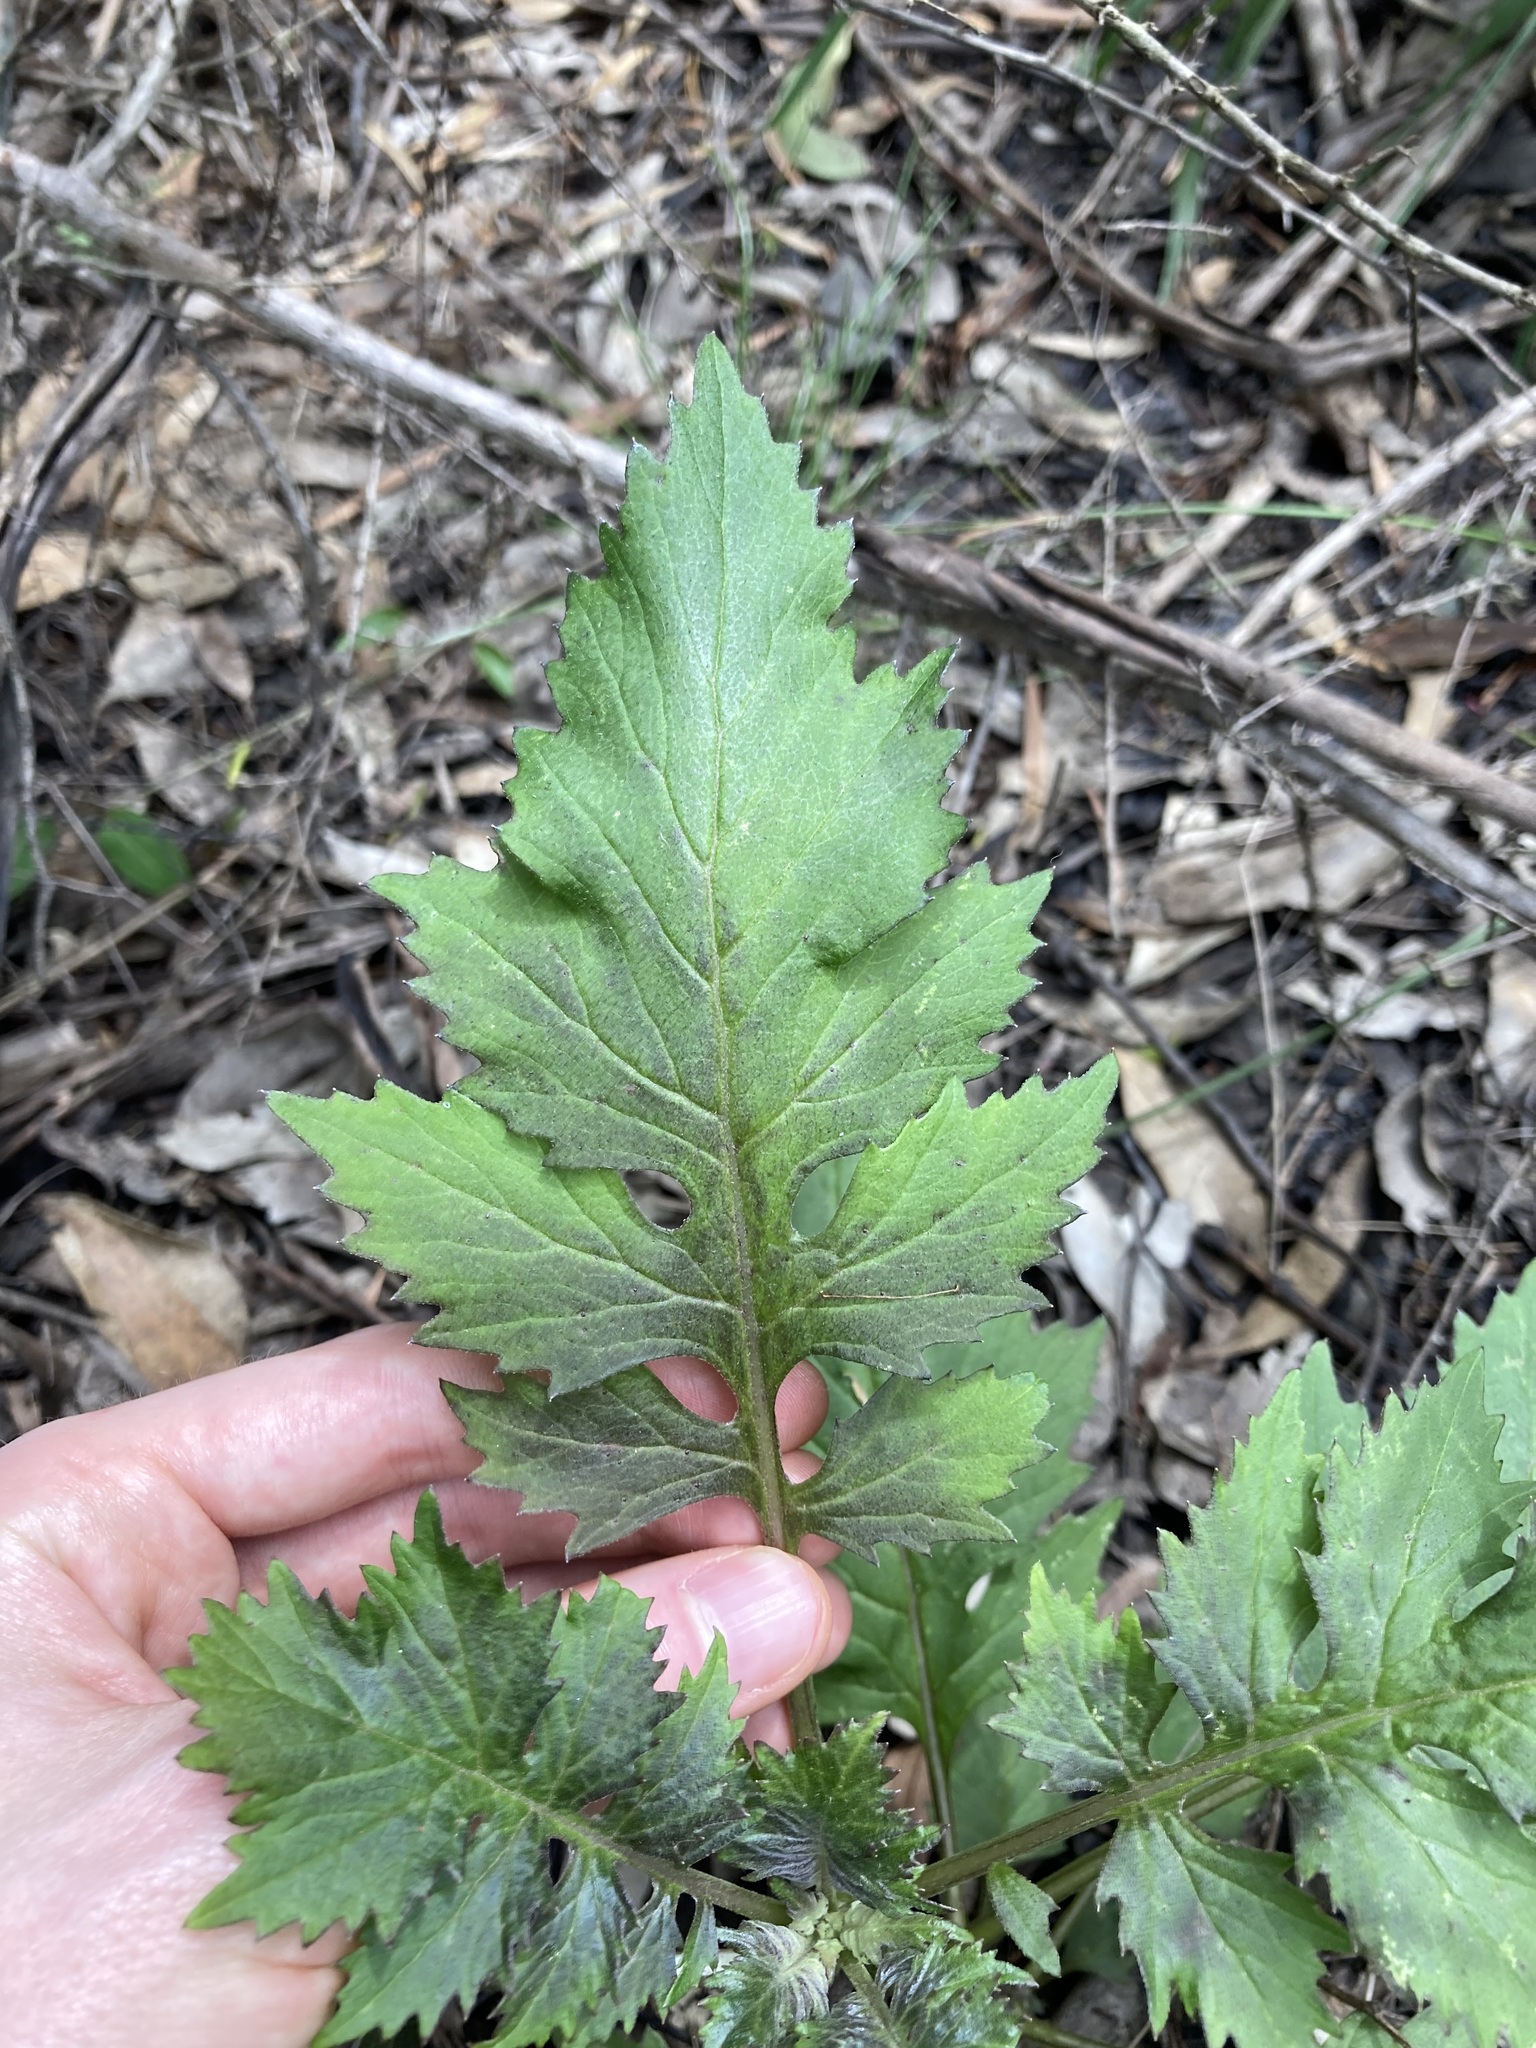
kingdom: Plantae
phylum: Tracheophyta
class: Magnoliopsida
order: Asterales
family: Asteraceae
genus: Erechtites
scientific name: Erechtites valerianifolius
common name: Tropical burnweed
